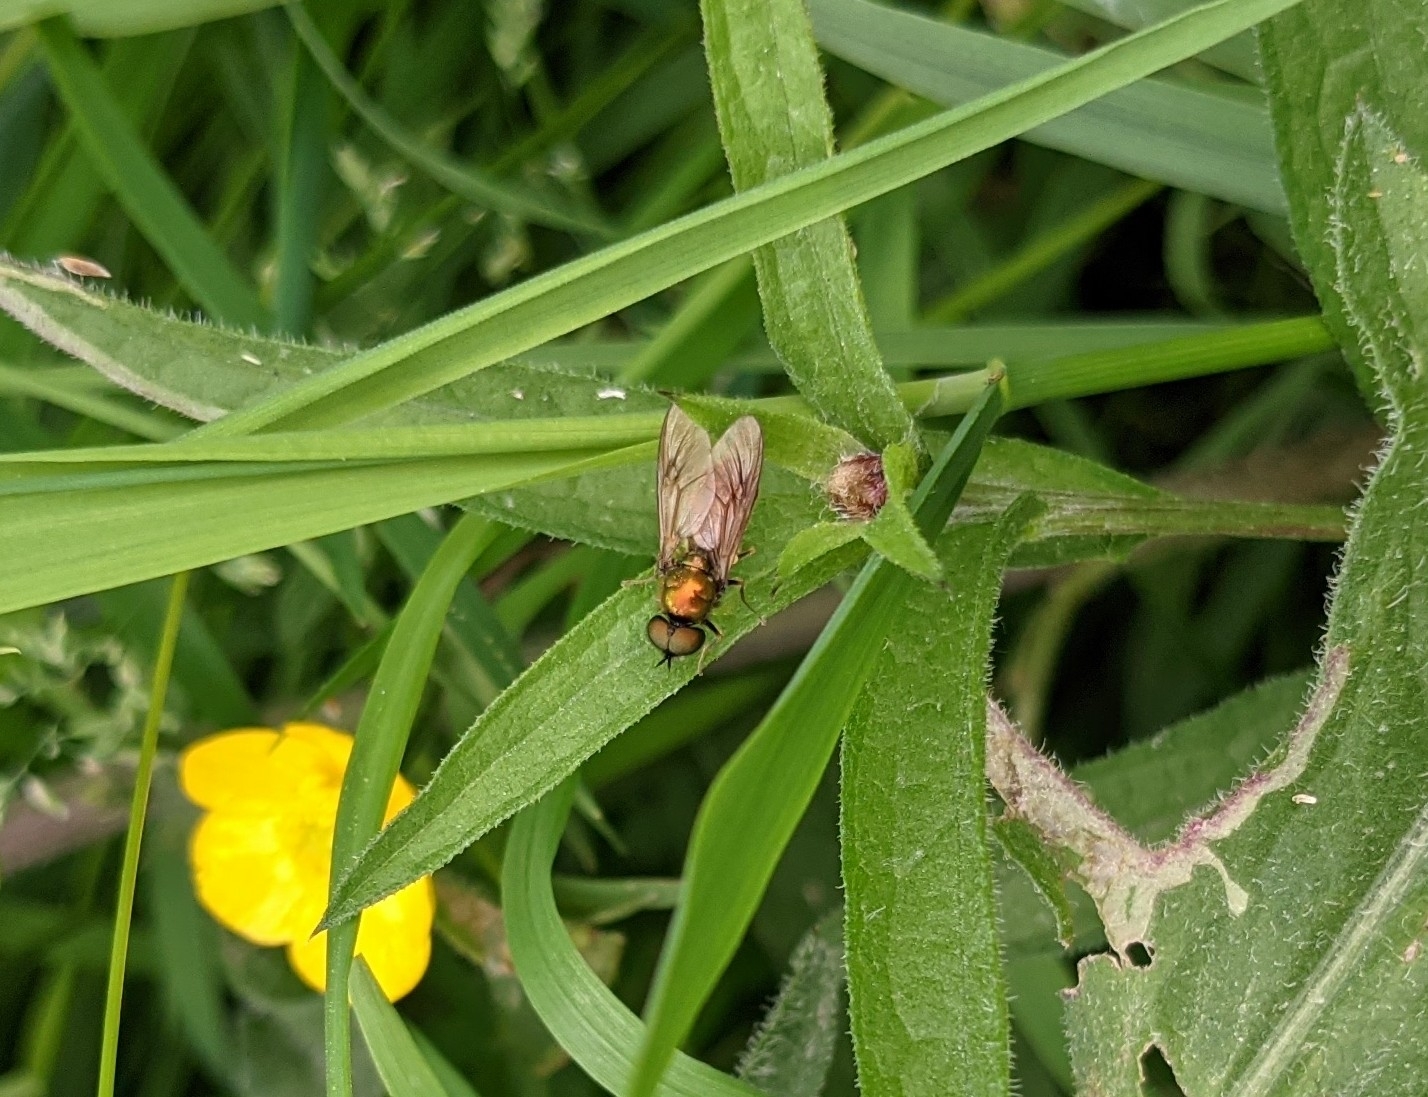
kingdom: Animalia
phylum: Arthropoda
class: Insecta
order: Diptera
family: Stratiomyidae
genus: Chloromyia
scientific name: Chloromyia formosa
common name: Soldier fly
